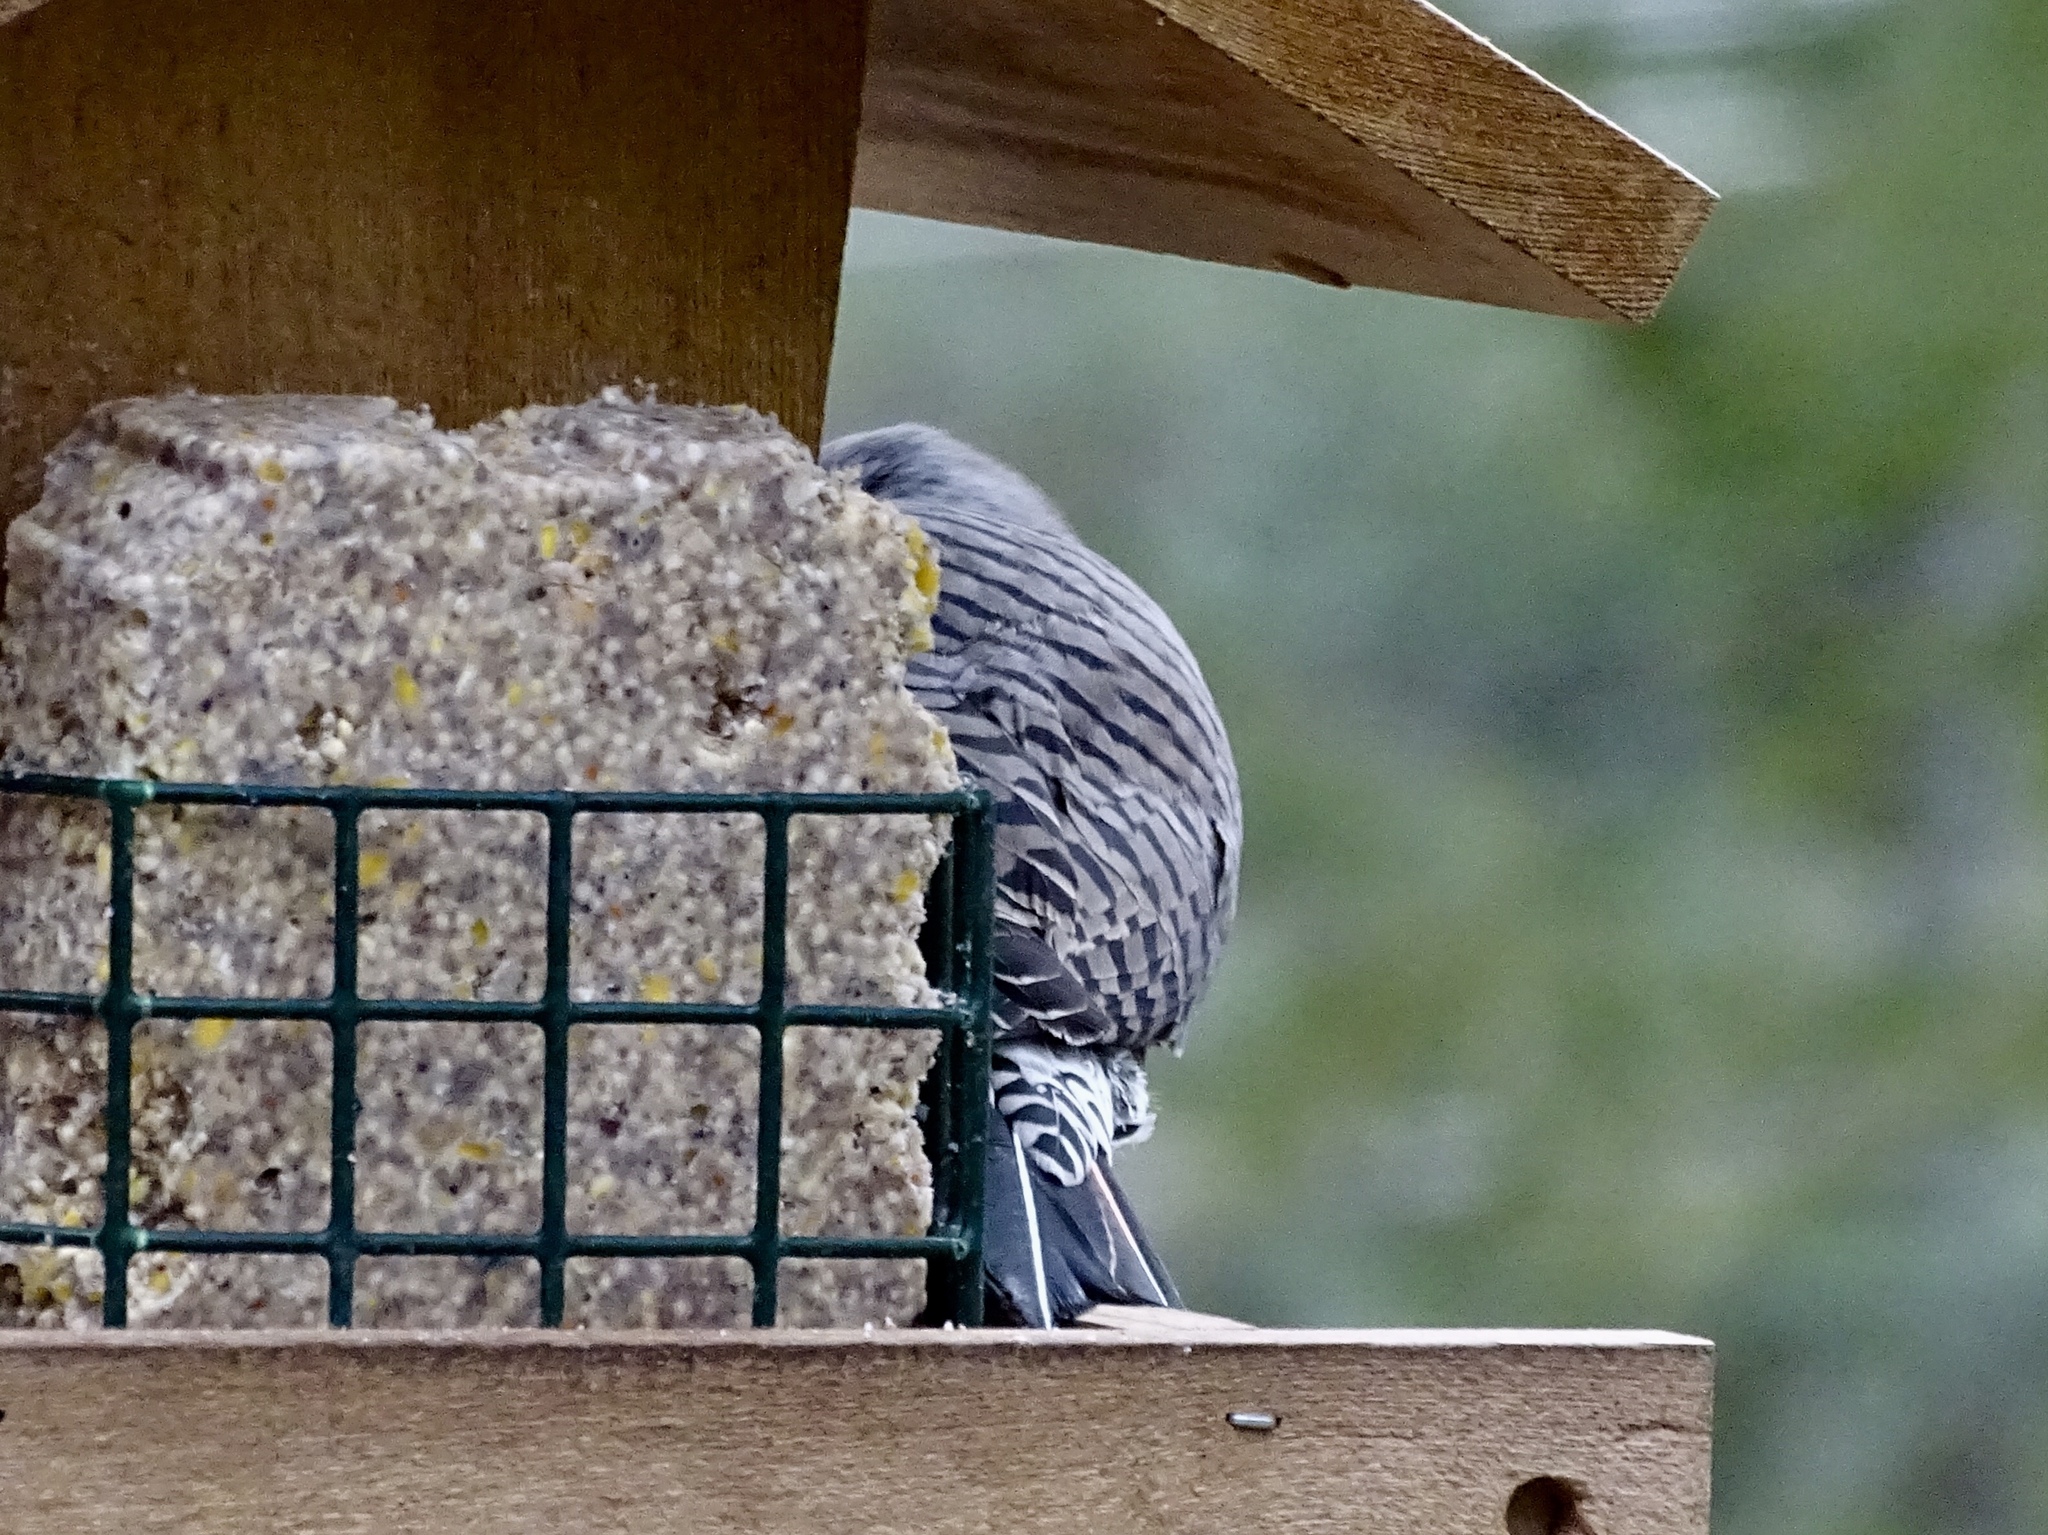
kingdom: Animalia
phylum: Chordata
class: Aves
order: Piciformes
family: Picidae
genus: Colaptes
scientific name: Colaptes auratus
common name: Northern flicker
